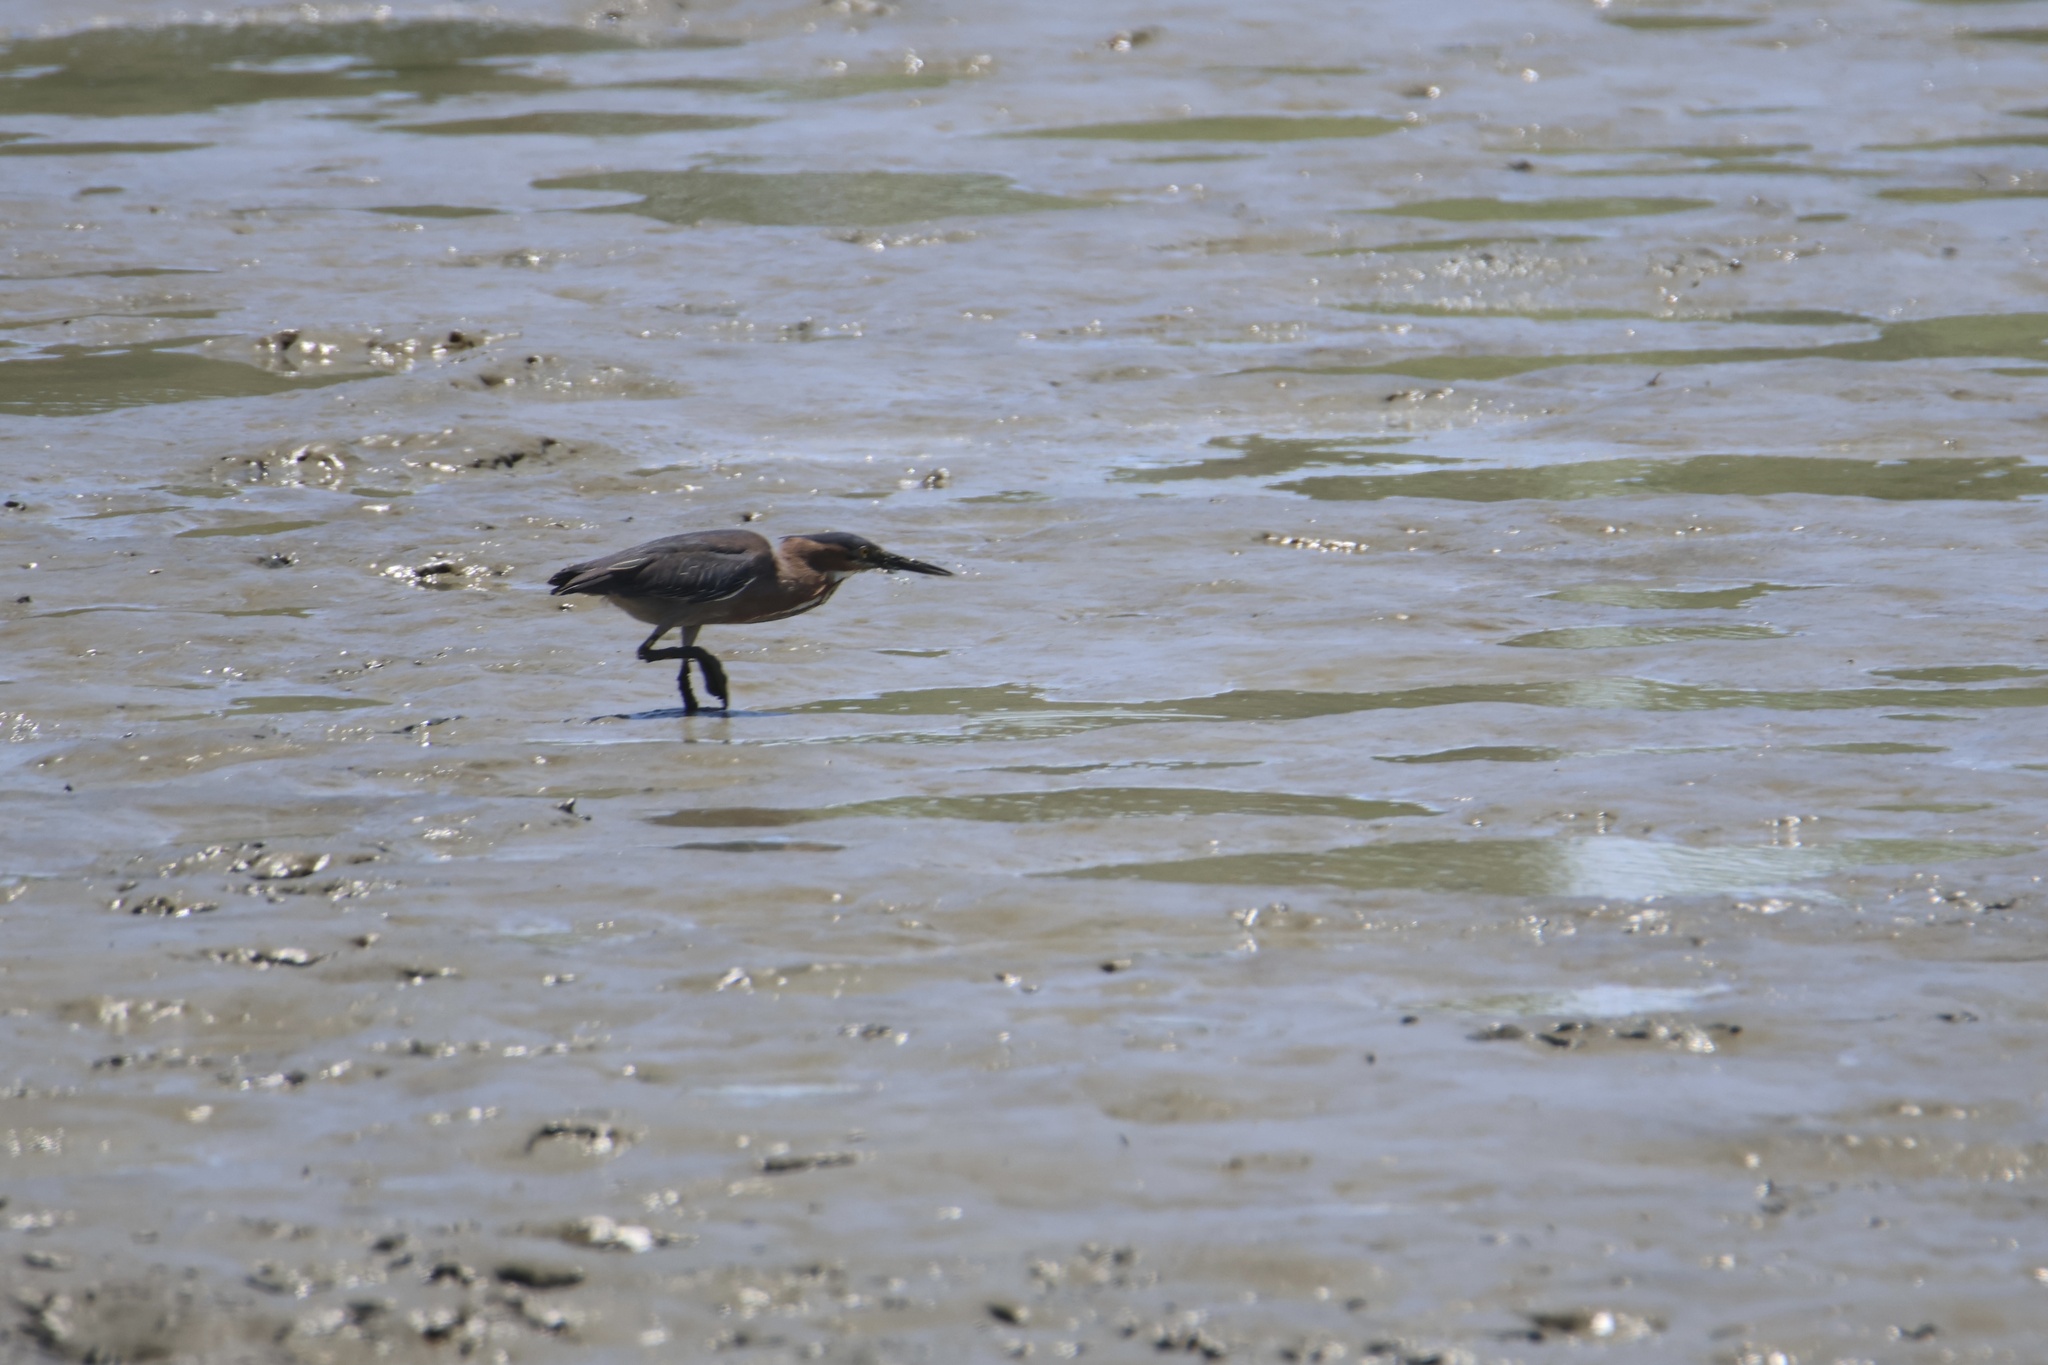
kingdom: Animalia
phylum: Chordata
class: Aves
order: Pelecaniformes
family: Ardeidae
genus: Butorides
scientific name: Butorides virescens
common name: Green heron
